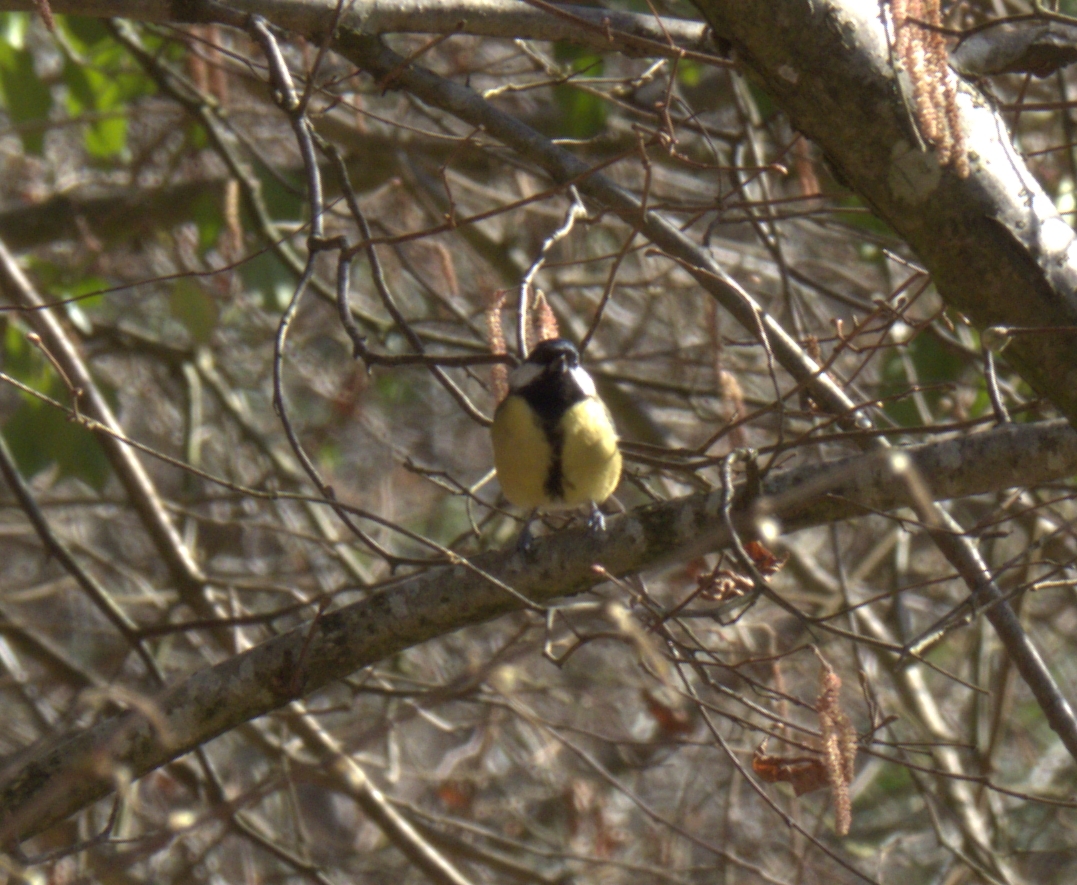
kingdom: Animalia
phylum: Chordata
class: Aves
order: Passeriformes
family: Paridae
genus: Parus
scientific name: Parus major
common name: Great tit
